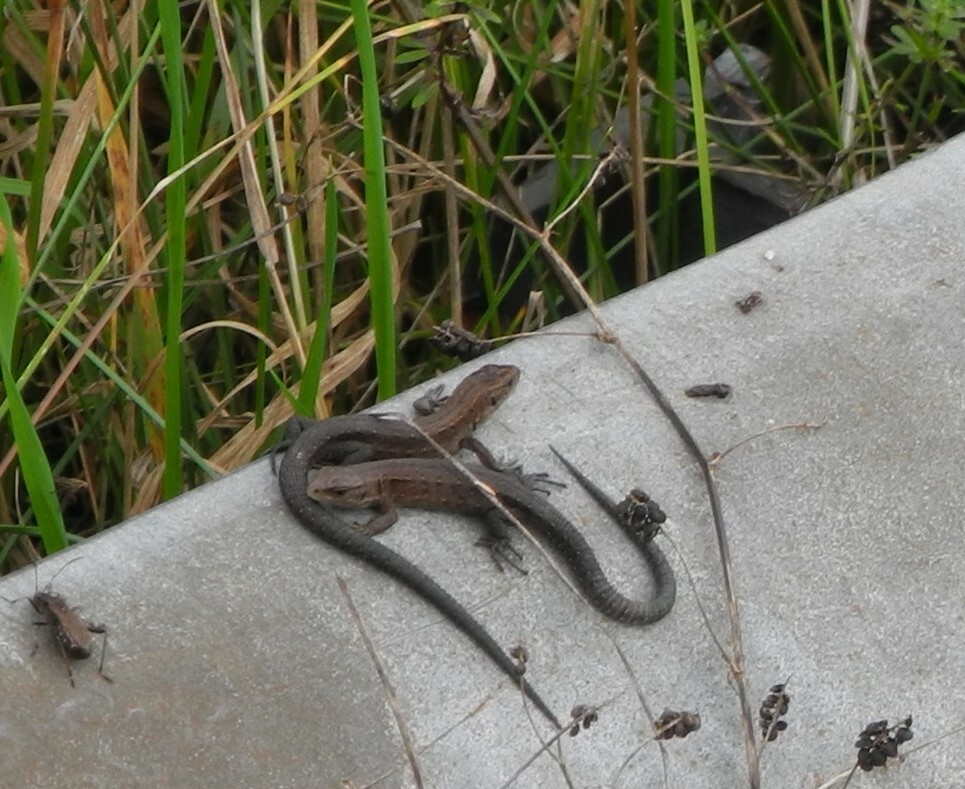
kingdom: Animalia
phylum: Chordata
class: Squamata
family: Lacertidae
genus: Zootoca
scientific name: Zootoca vivipara
